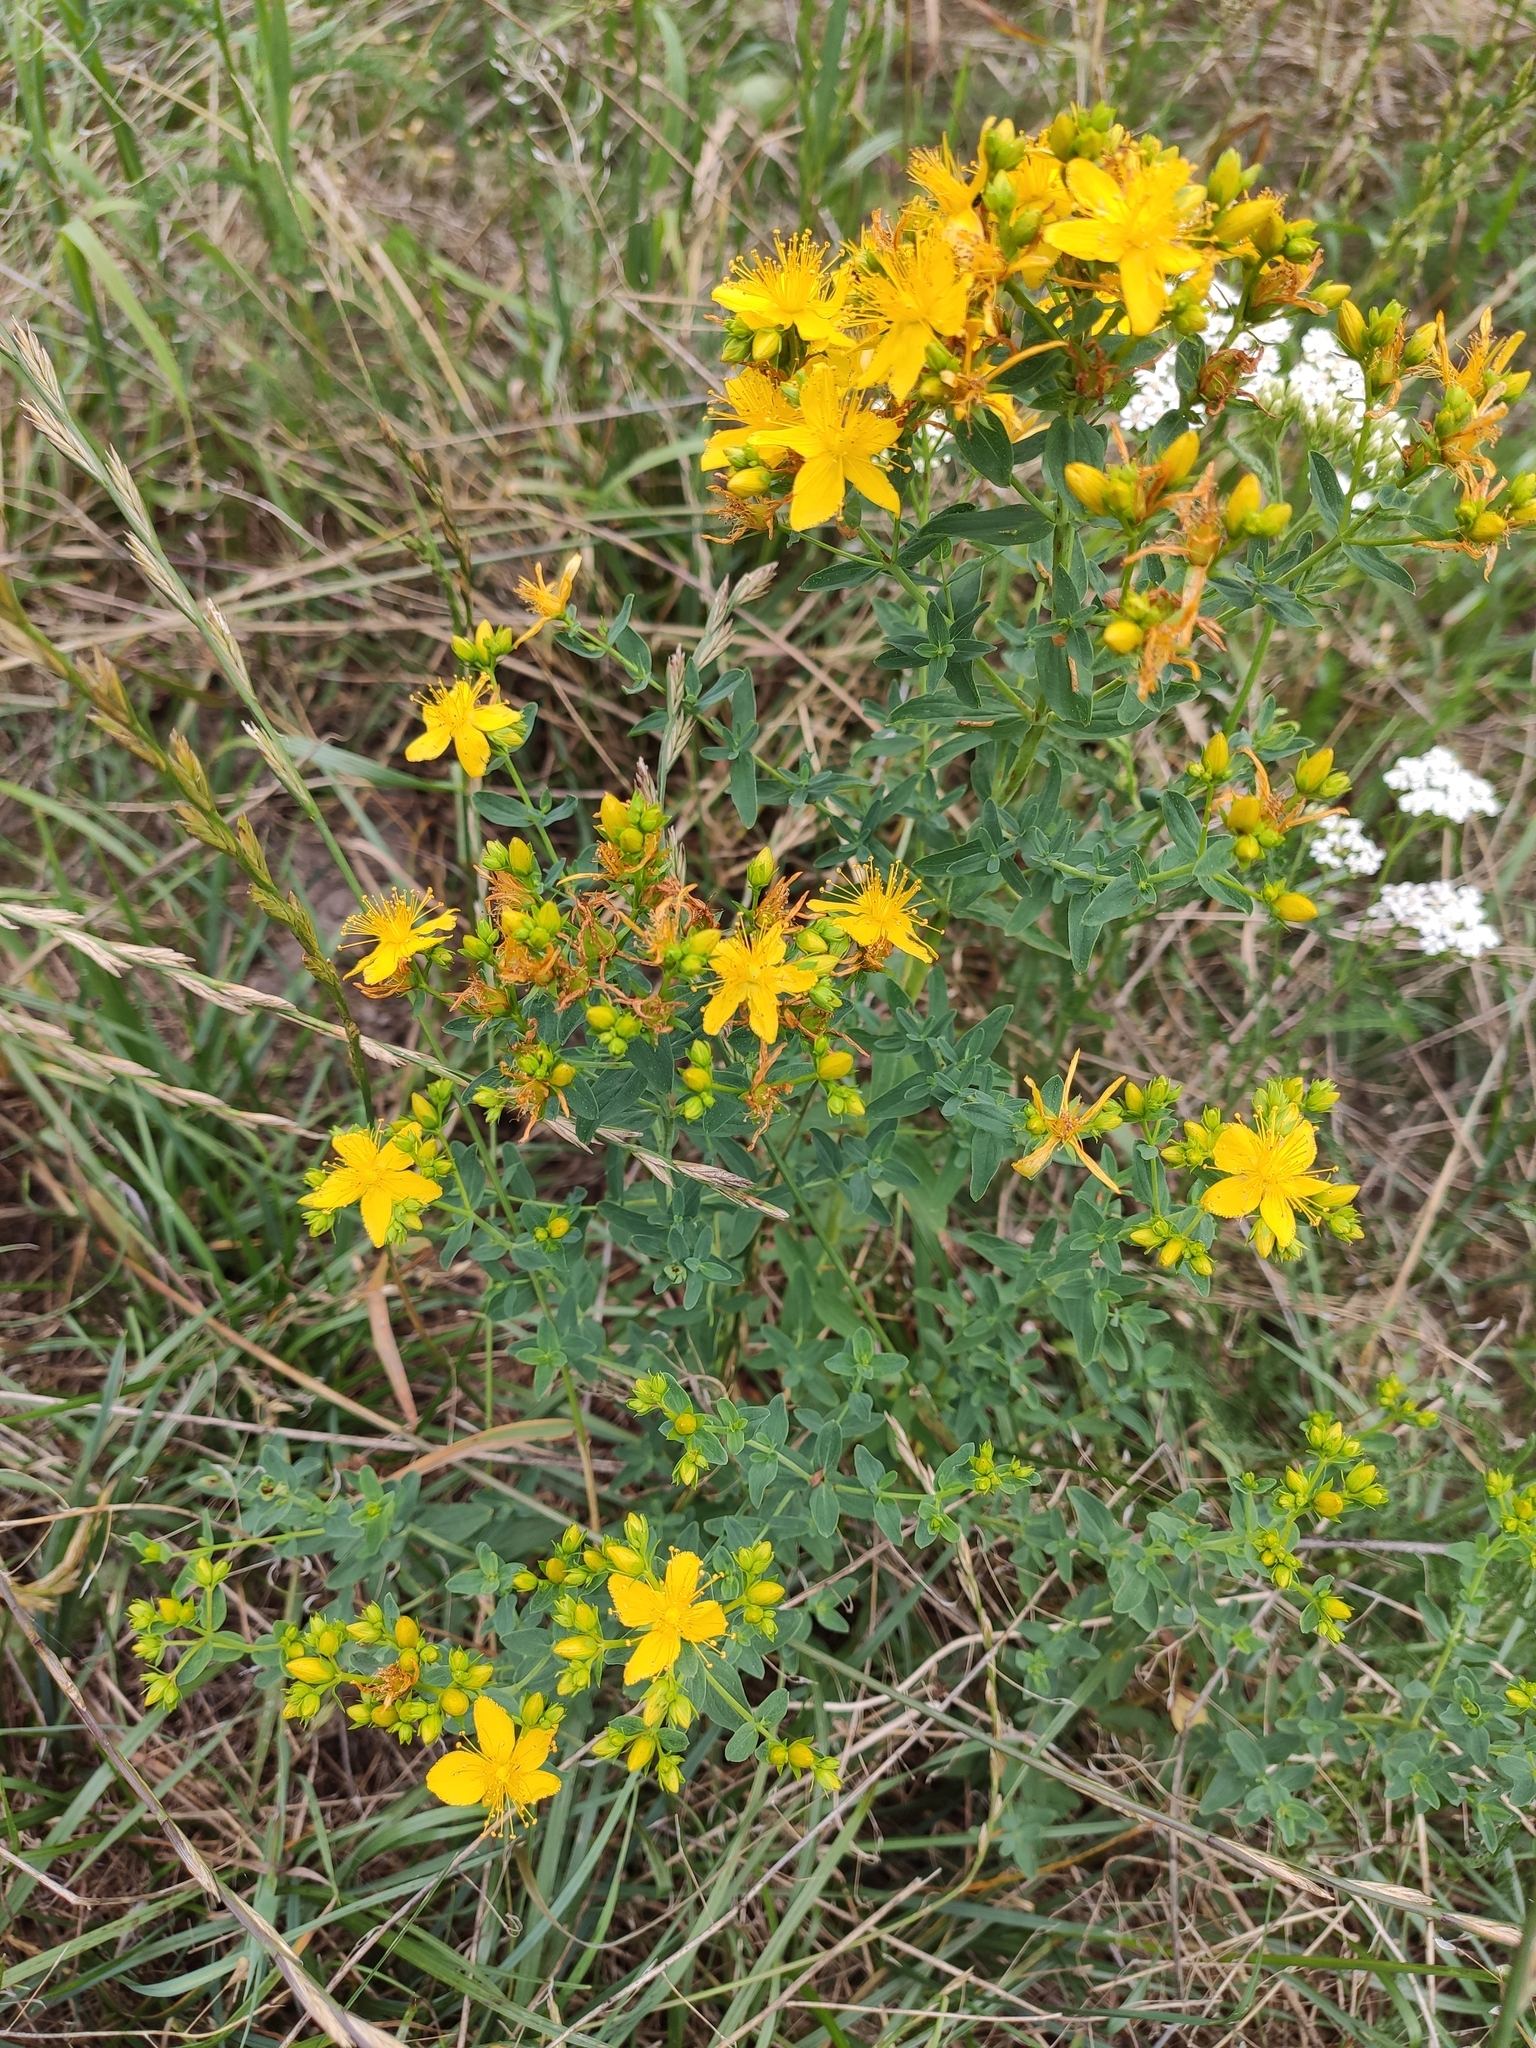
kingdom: Plantae
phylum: Tracheophyta
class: Magnoliopsida
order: Malpighiales
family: Hypericaceae
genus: Hypericum
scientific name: Hypericum perforatum
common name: Common st. johnswort
